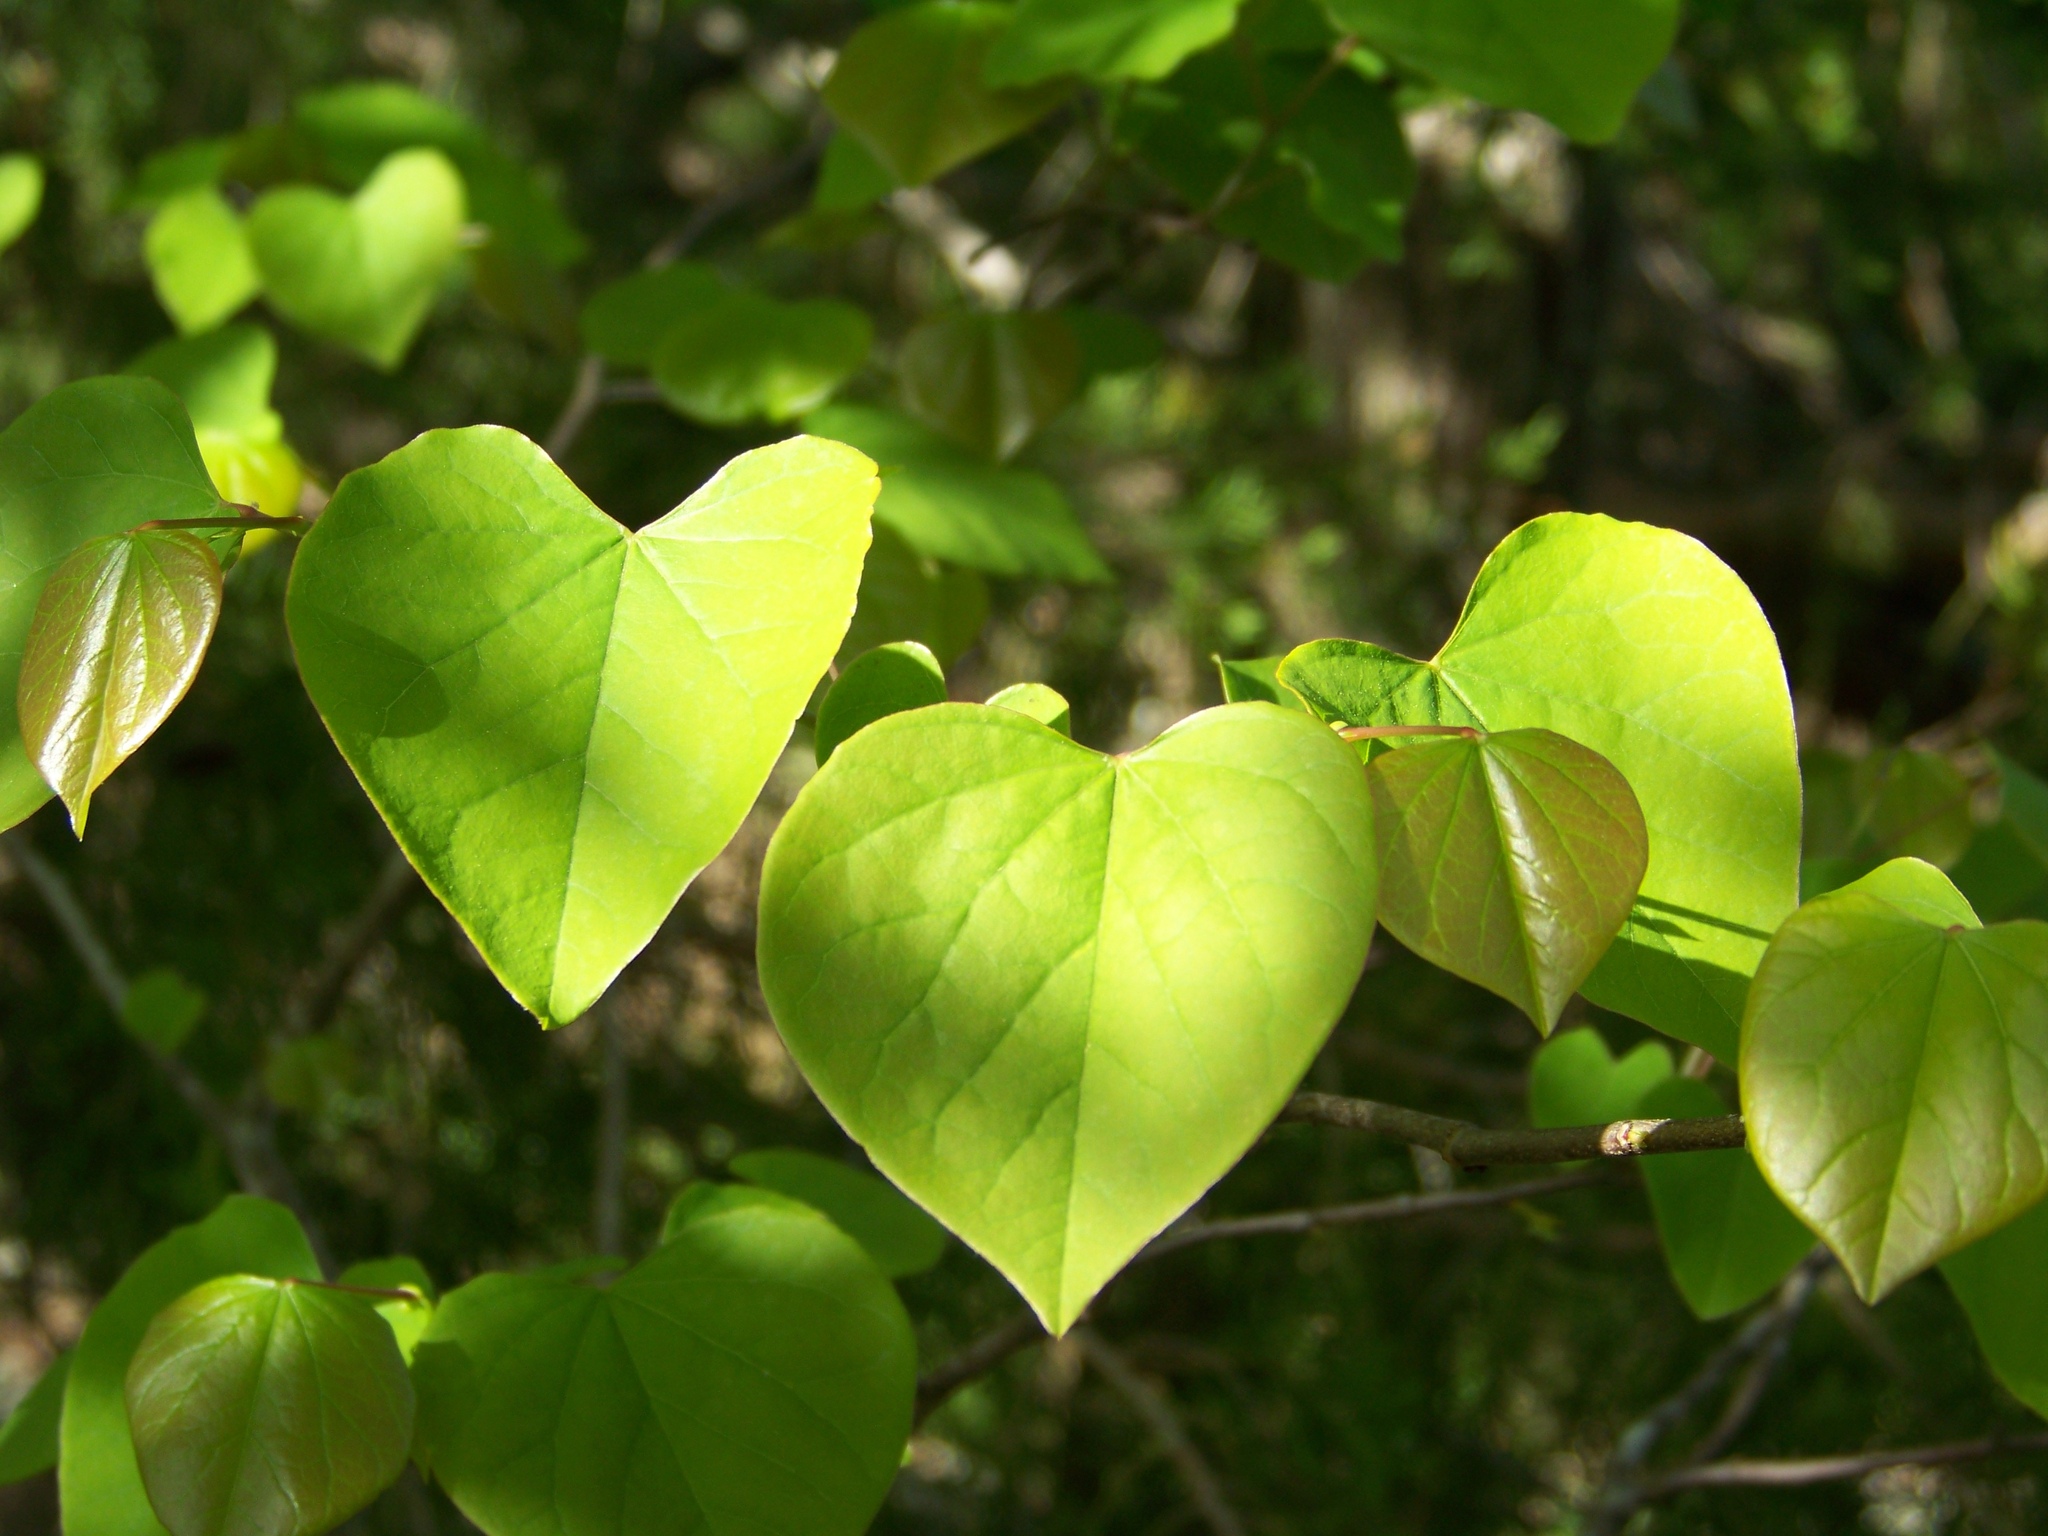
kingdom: Plantae
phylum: Tracheophyta
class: Magnoliopsida
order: Fabales
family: Fabaceae
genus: Cercis
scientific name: Cercis canadensis
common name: Eastern redbud
